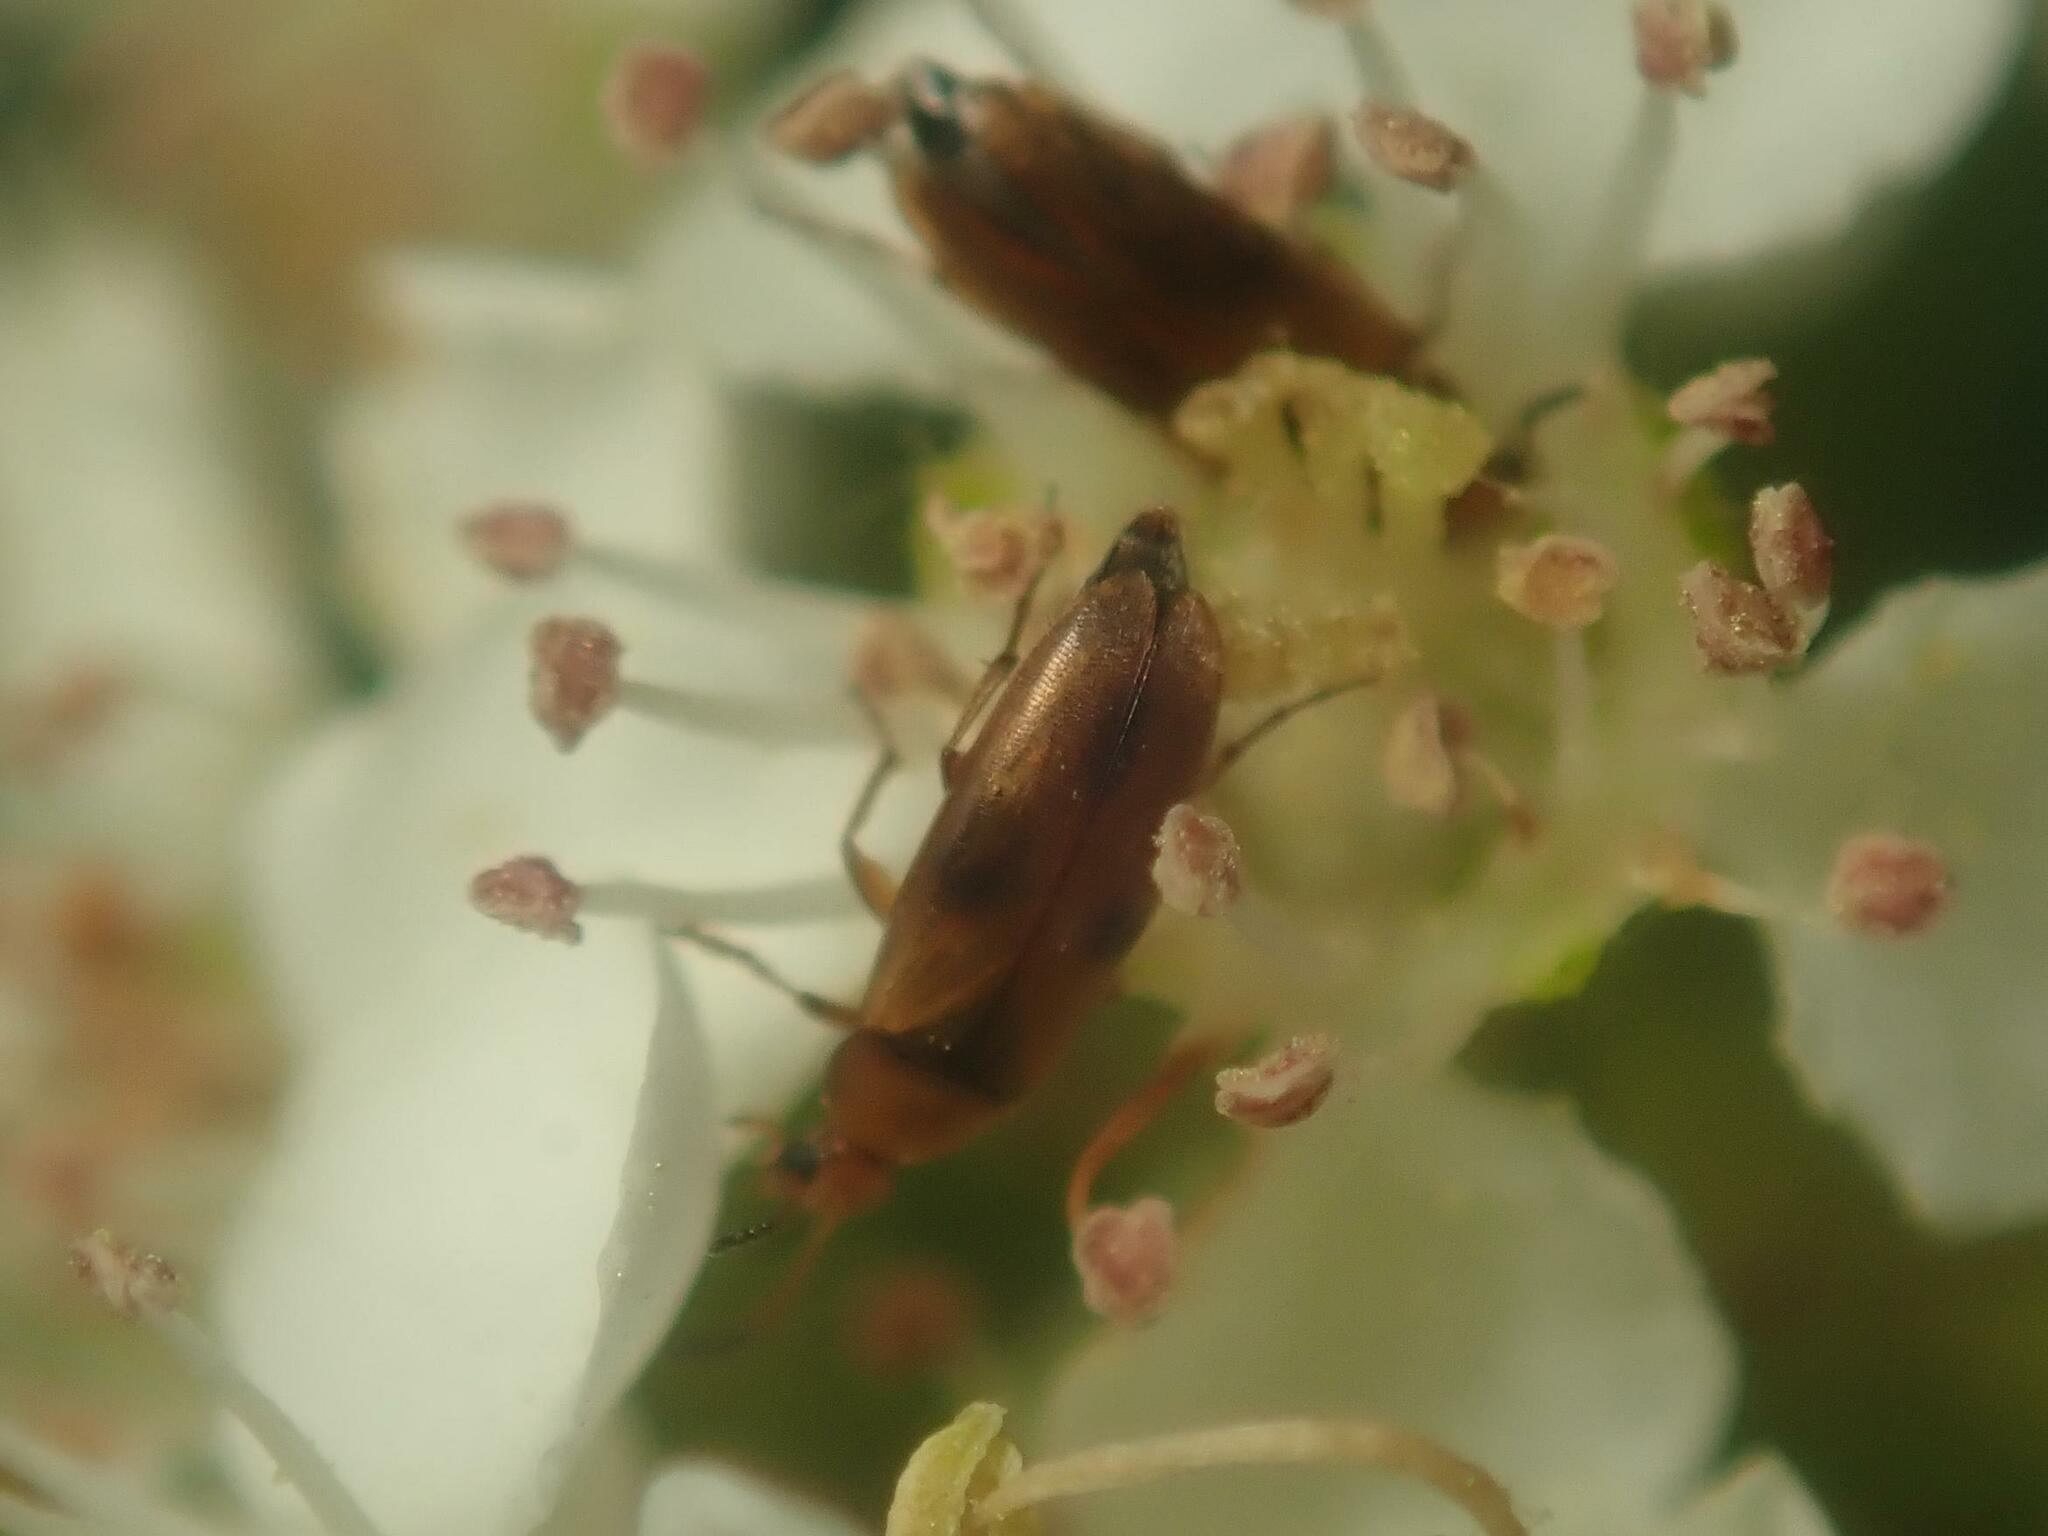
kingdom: Animalia
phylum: Arthropoda
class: Insecta
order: Coleoptera
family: Scraptiidae
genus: Anaspis
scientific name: Anaspis maculata
